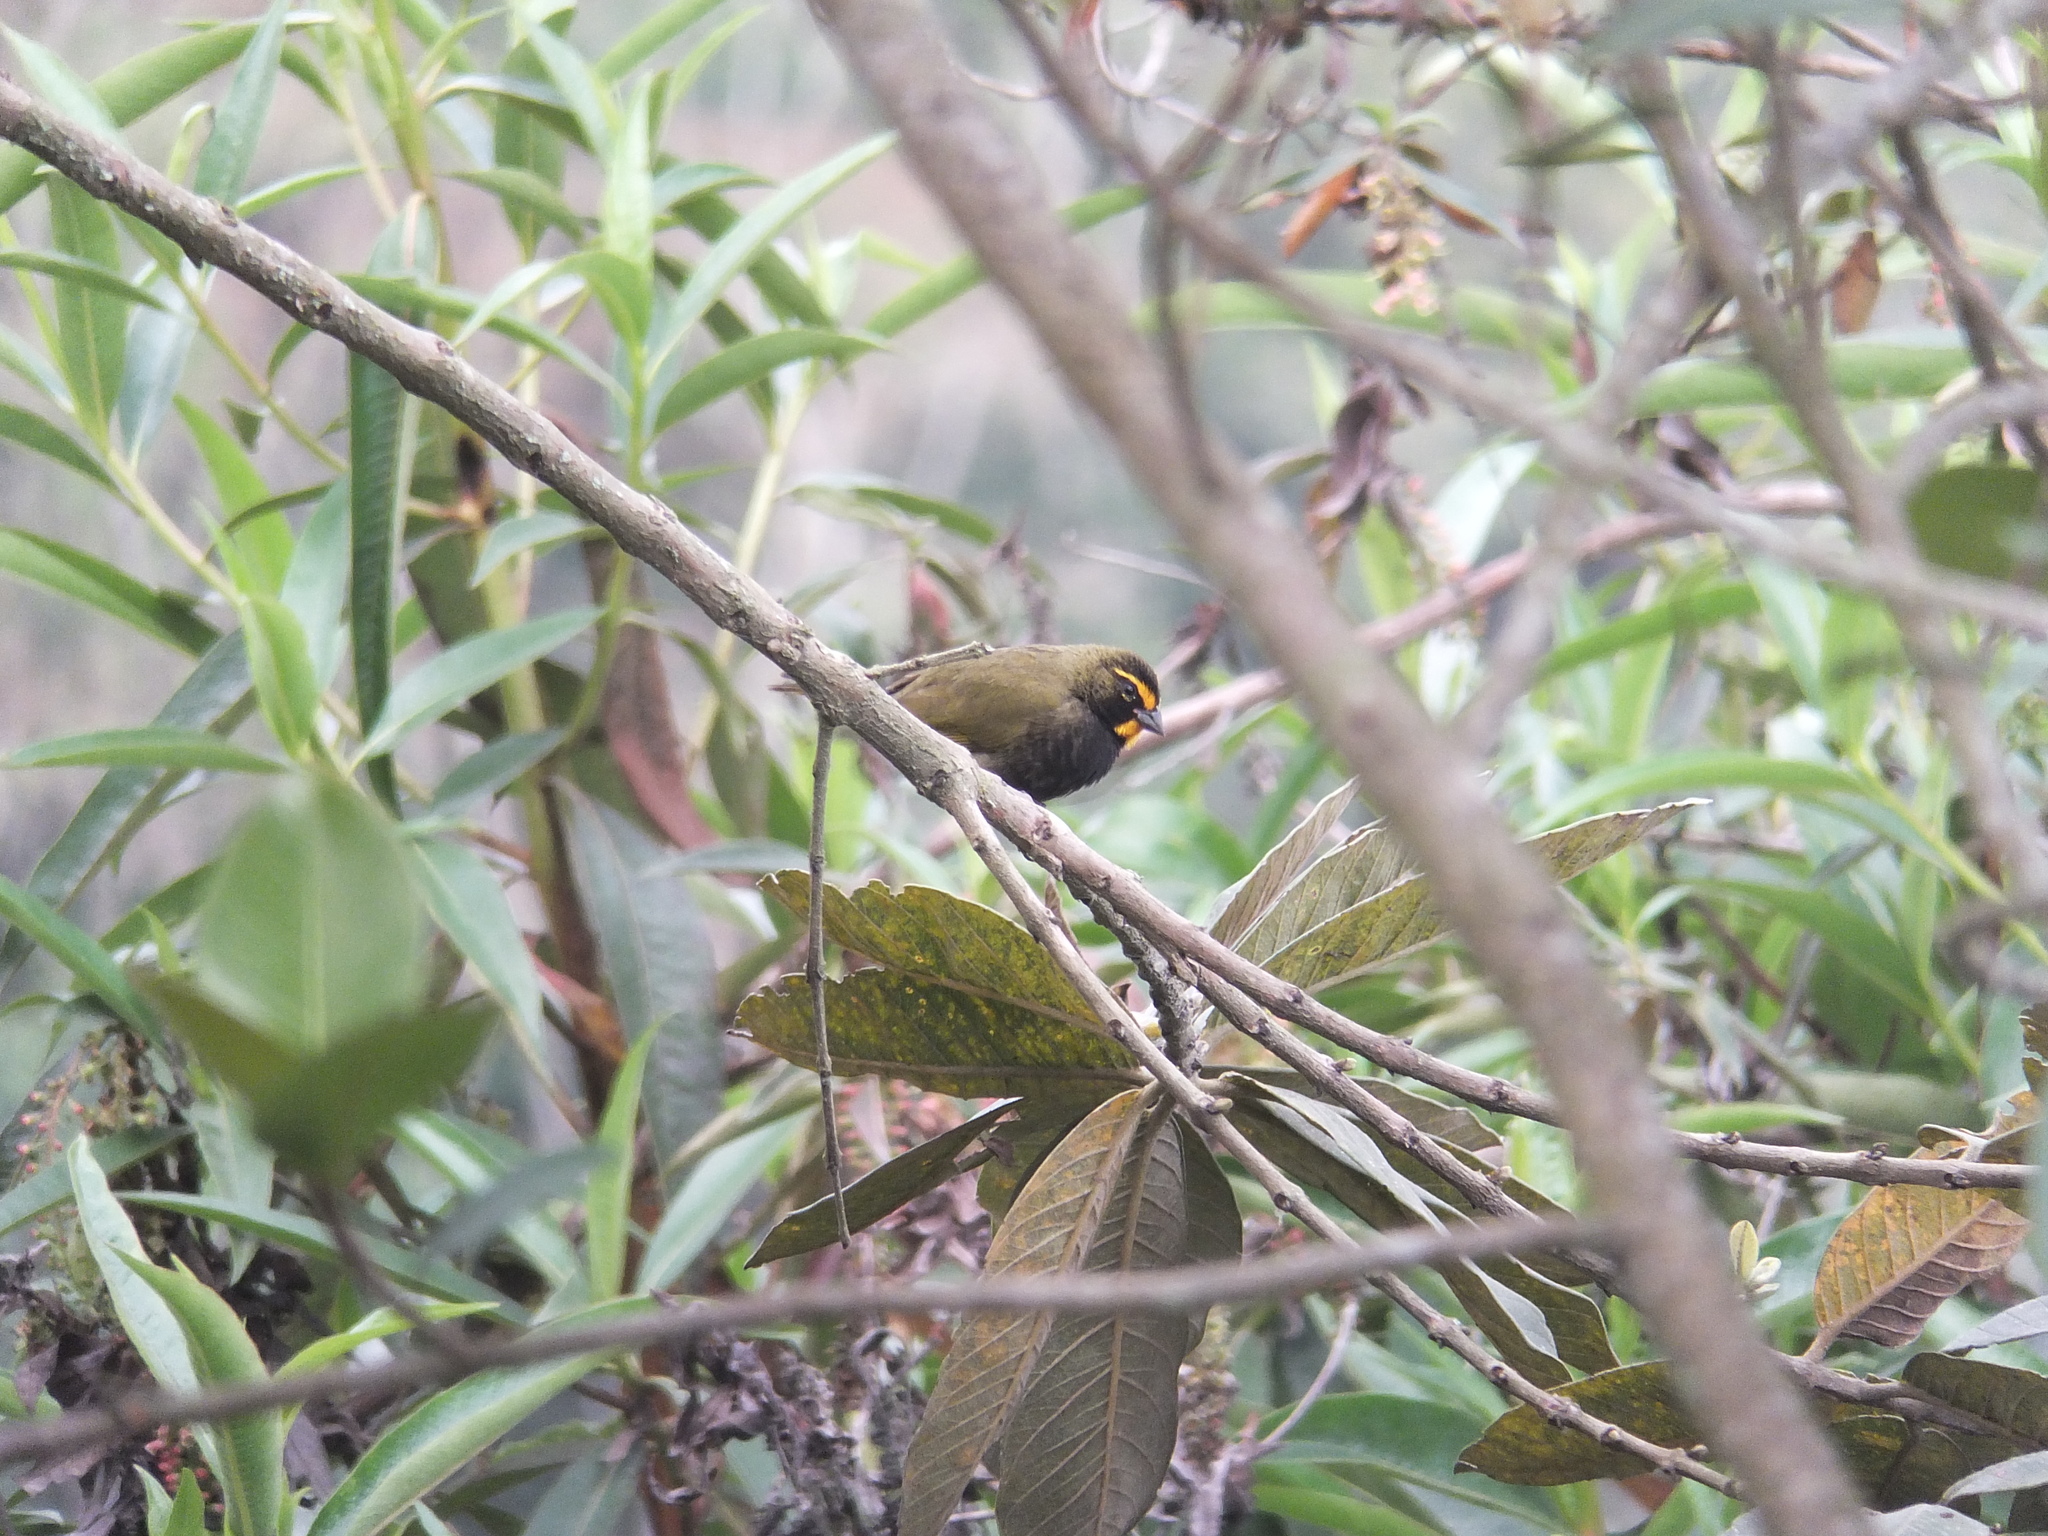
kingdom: Animalia
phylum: Chordata
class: Aves
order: Passeriformes
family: Thraupidae
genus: Tiaris
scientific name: Tiaris olivaceus
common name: Yellow-faced grassquit
